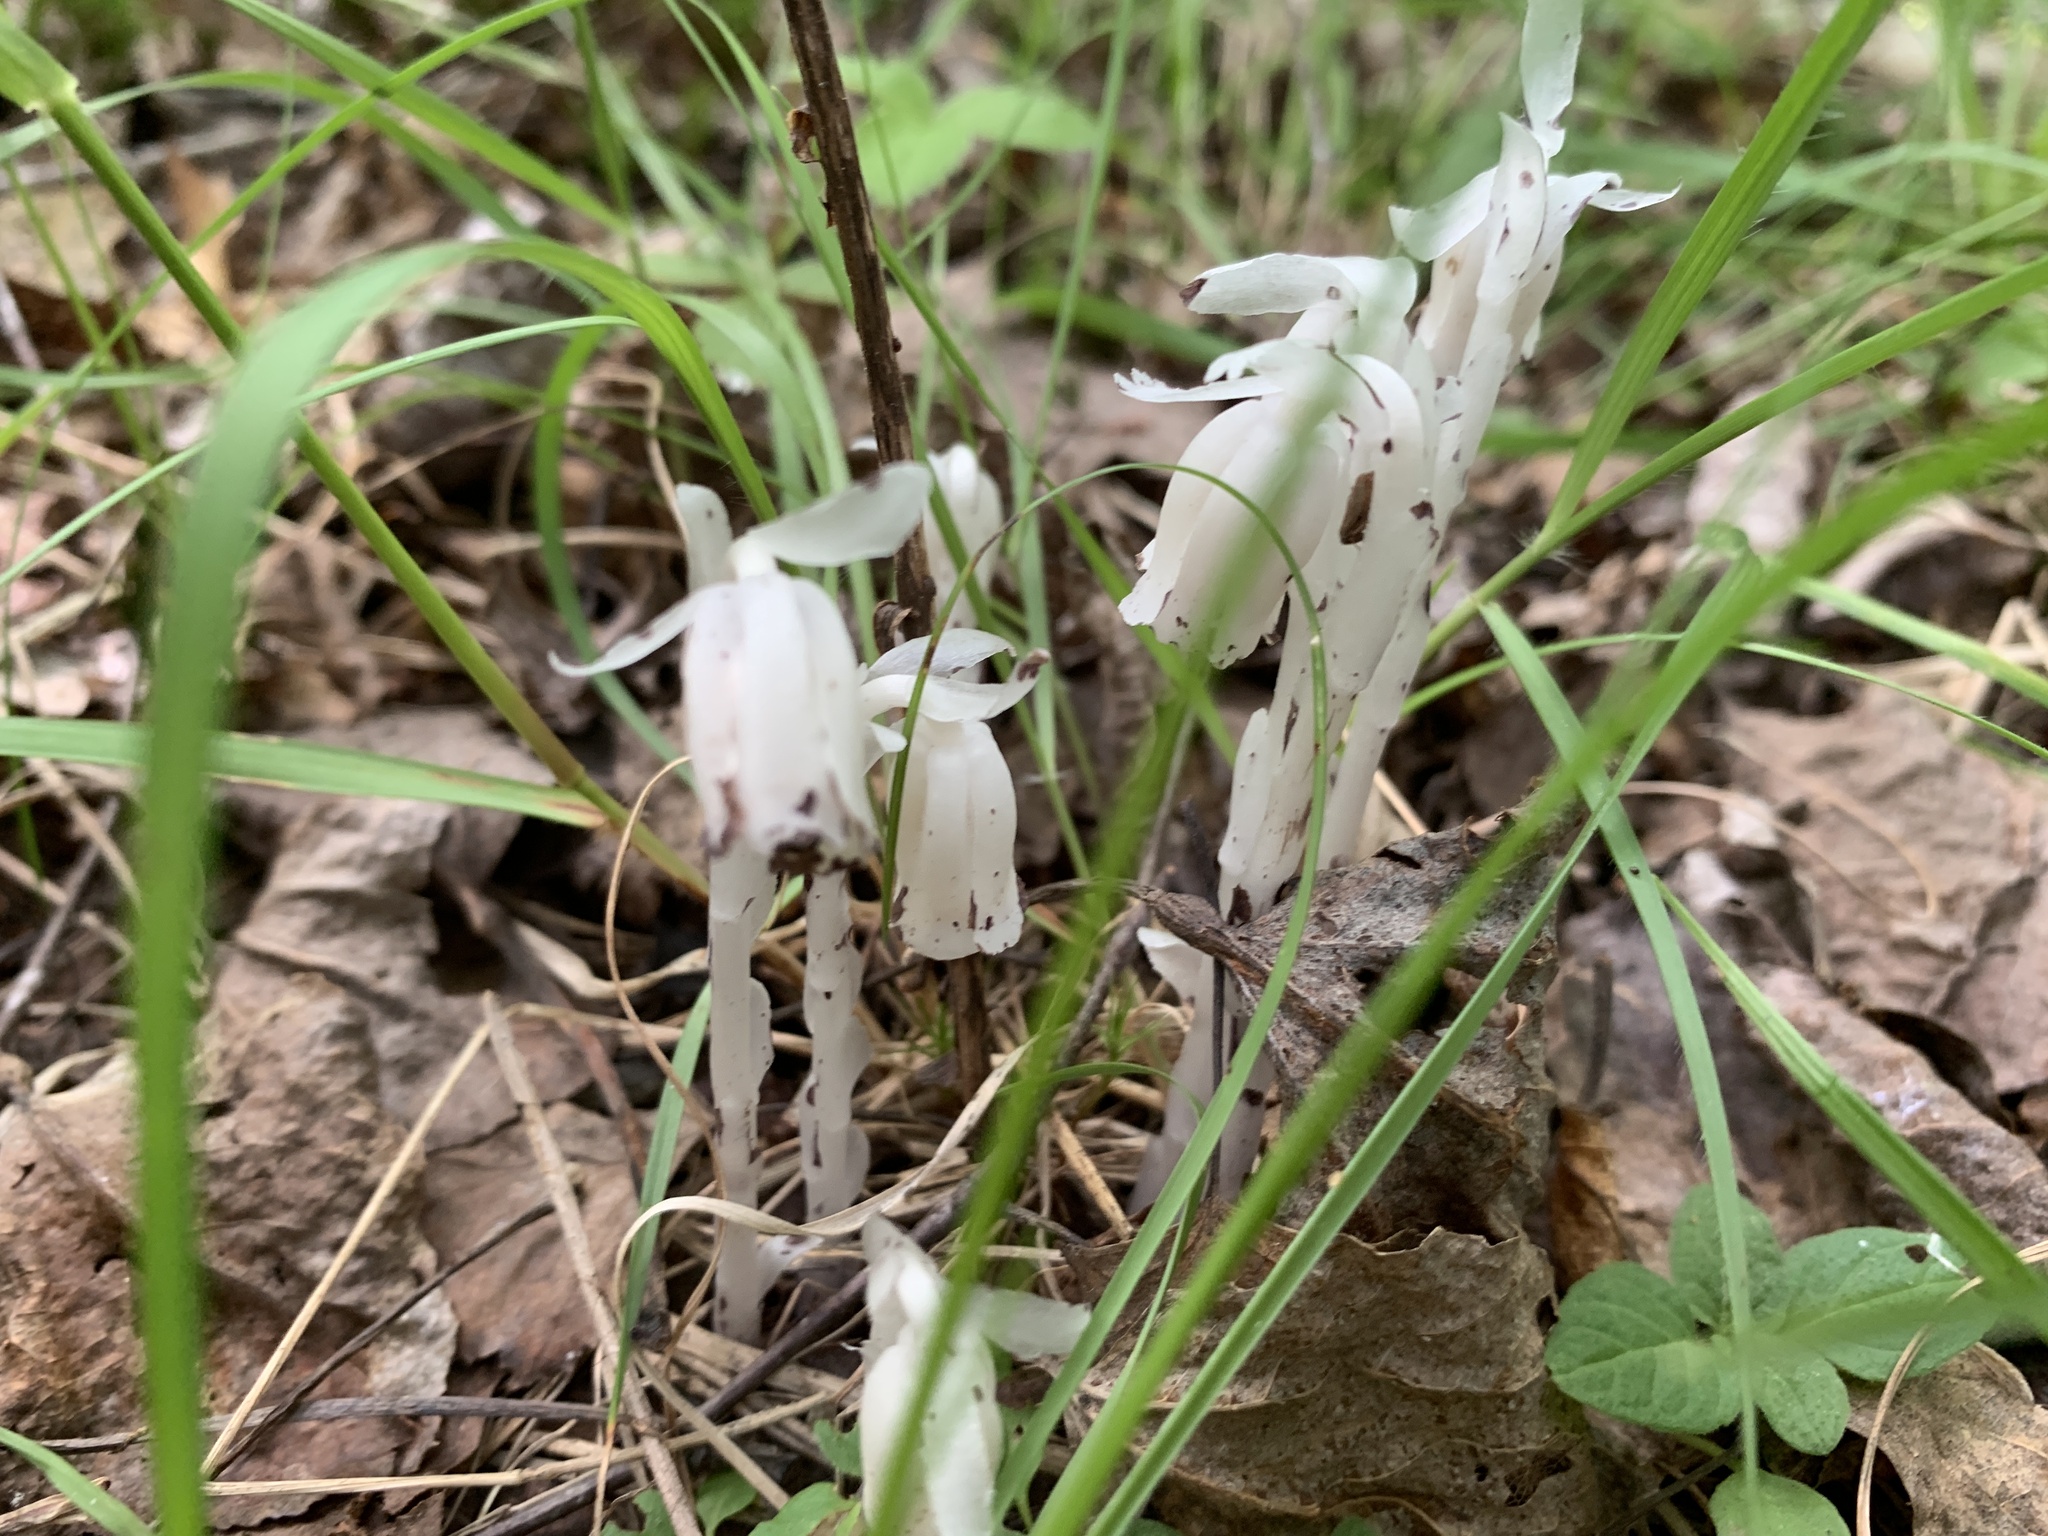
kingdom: Plantae
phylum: Tracheophyta
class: Magnoliopsida
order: Ericales
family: Ericaceae
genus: Monotropa
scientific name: Monotropa uniflora
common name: Convulsion root
